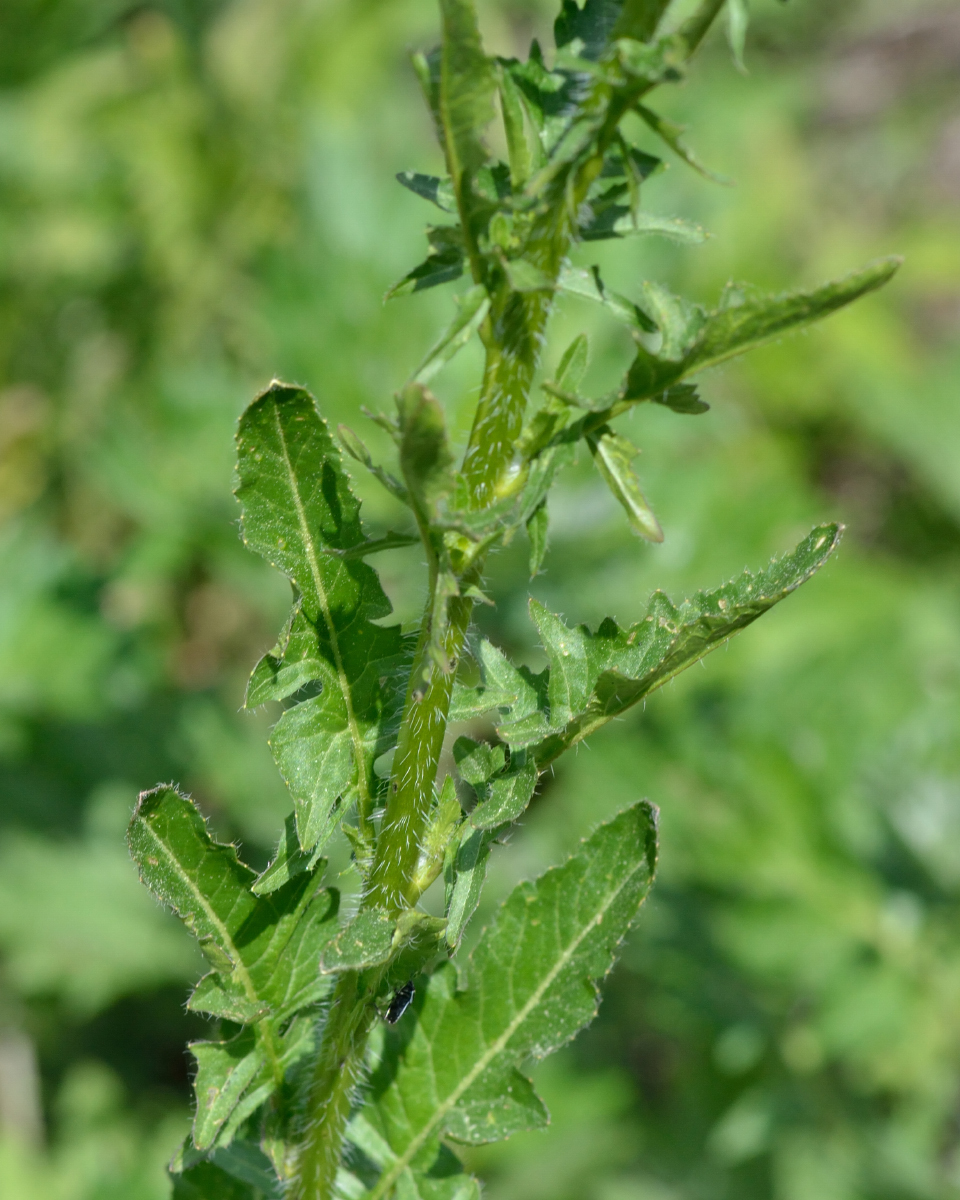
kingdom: Plantae
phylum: Tracheophyta
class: Magnoliopsida
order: Brassicales
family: Brassicaceae
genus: Sisymbrium
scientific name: Sisymbrium loeselii
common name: False london-rocket
